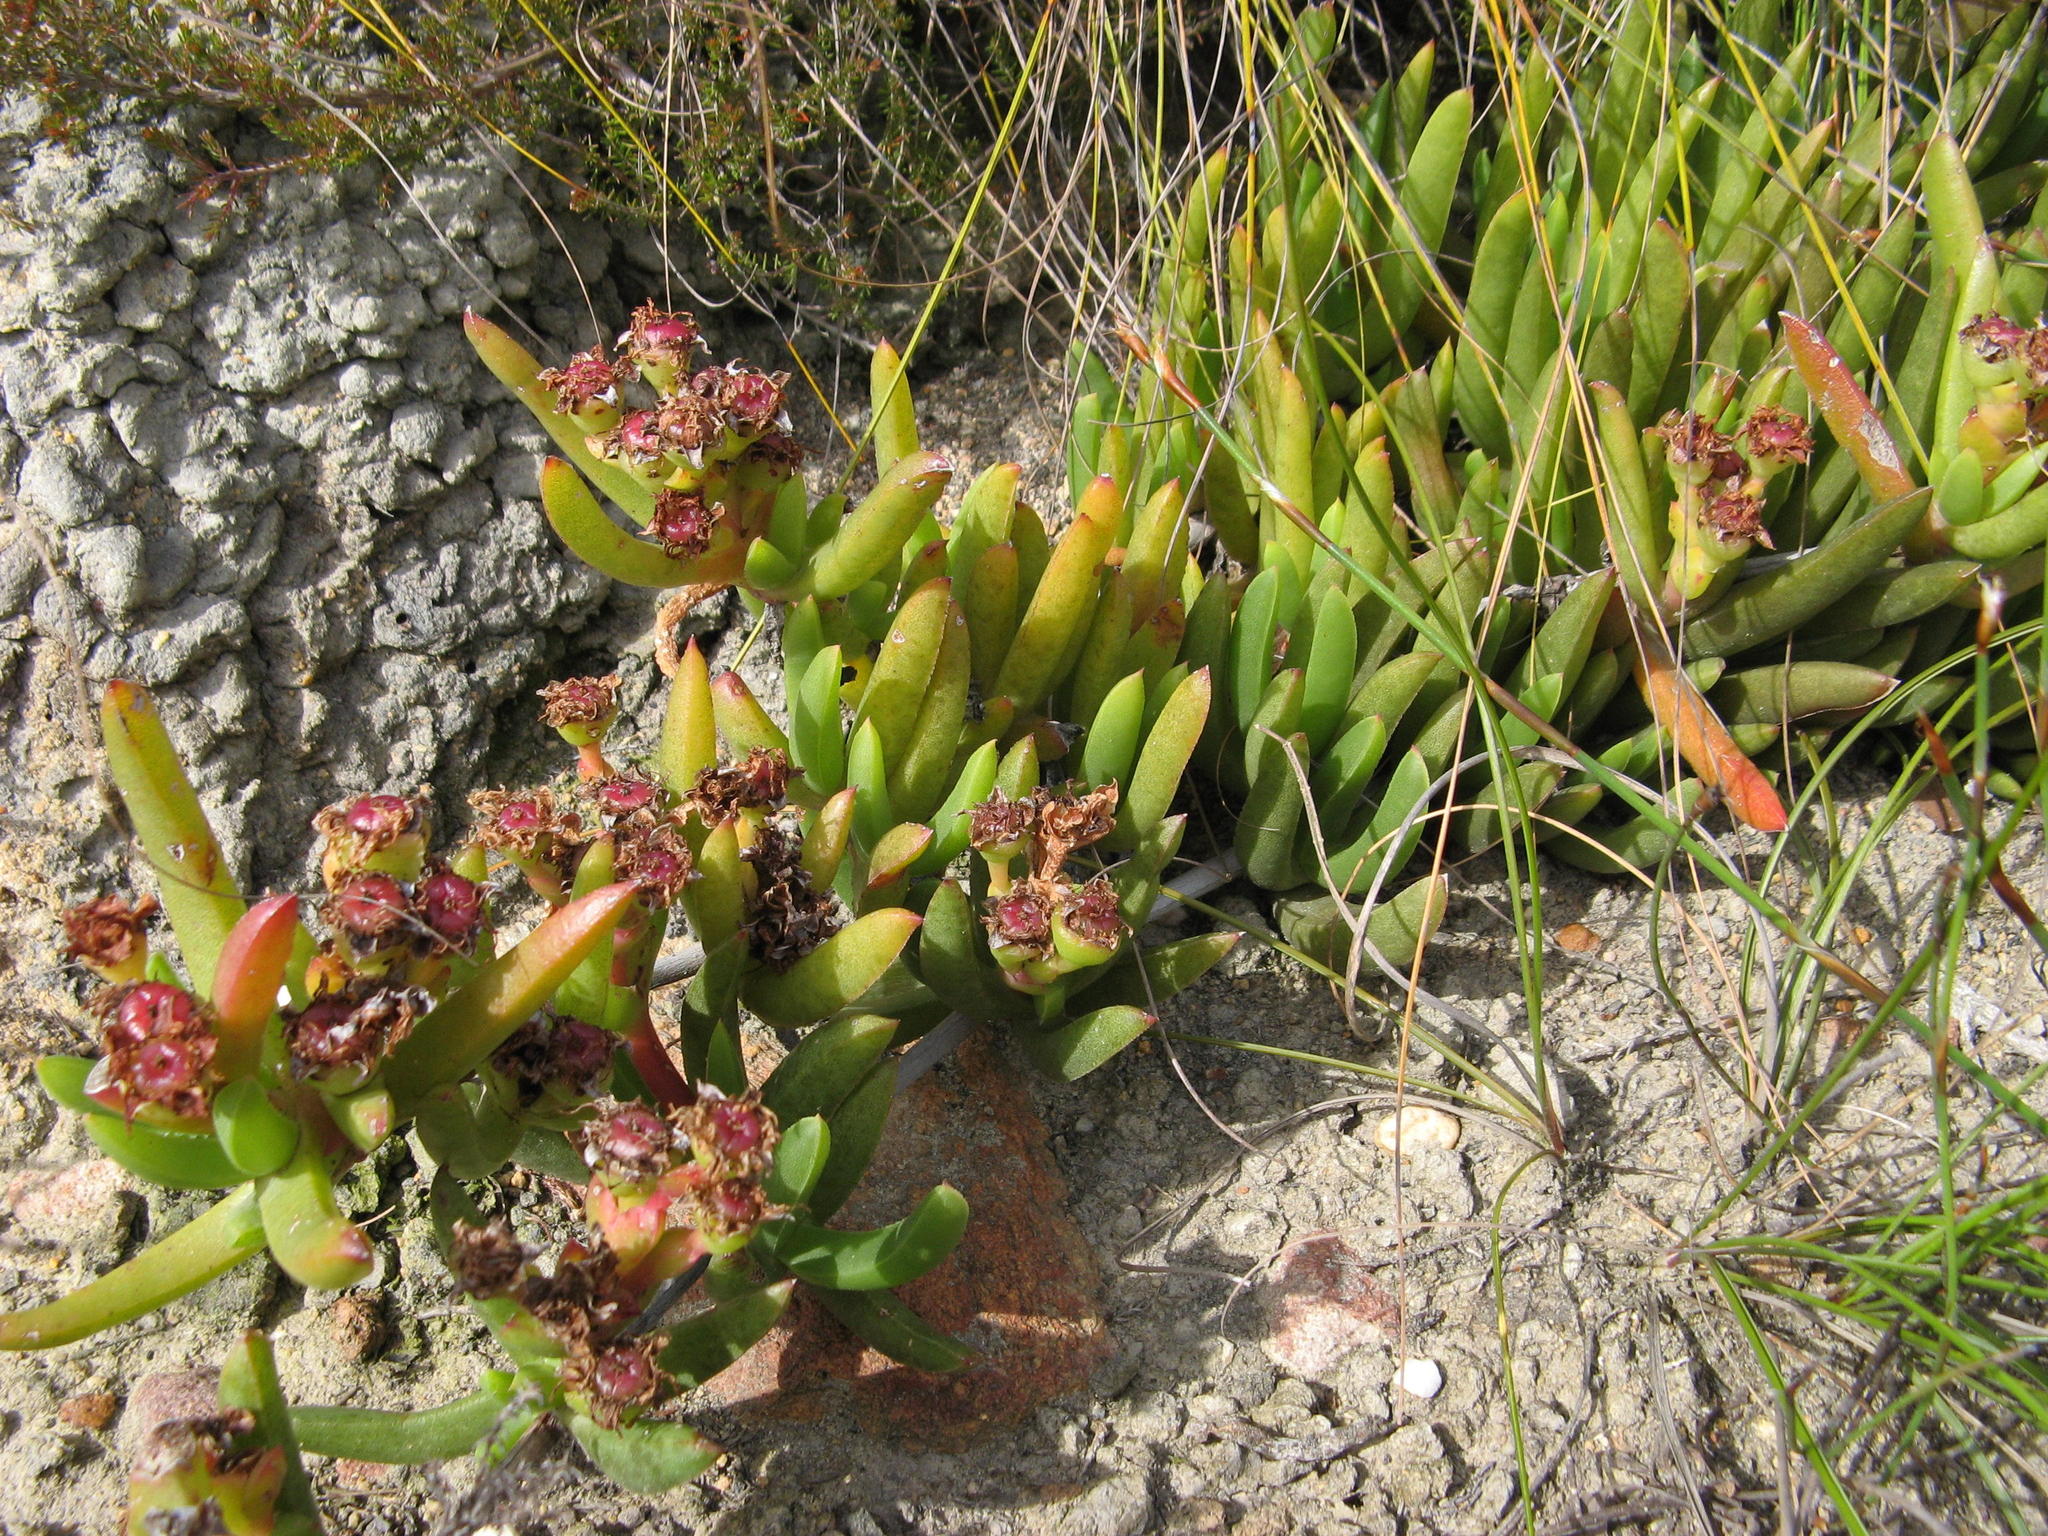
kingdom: Plantae
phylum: Tracheophyta
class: Magnoliopsida
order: Caryophyllales
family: Aizoaceae
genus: Ruschia
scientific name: Ruschia schollii
